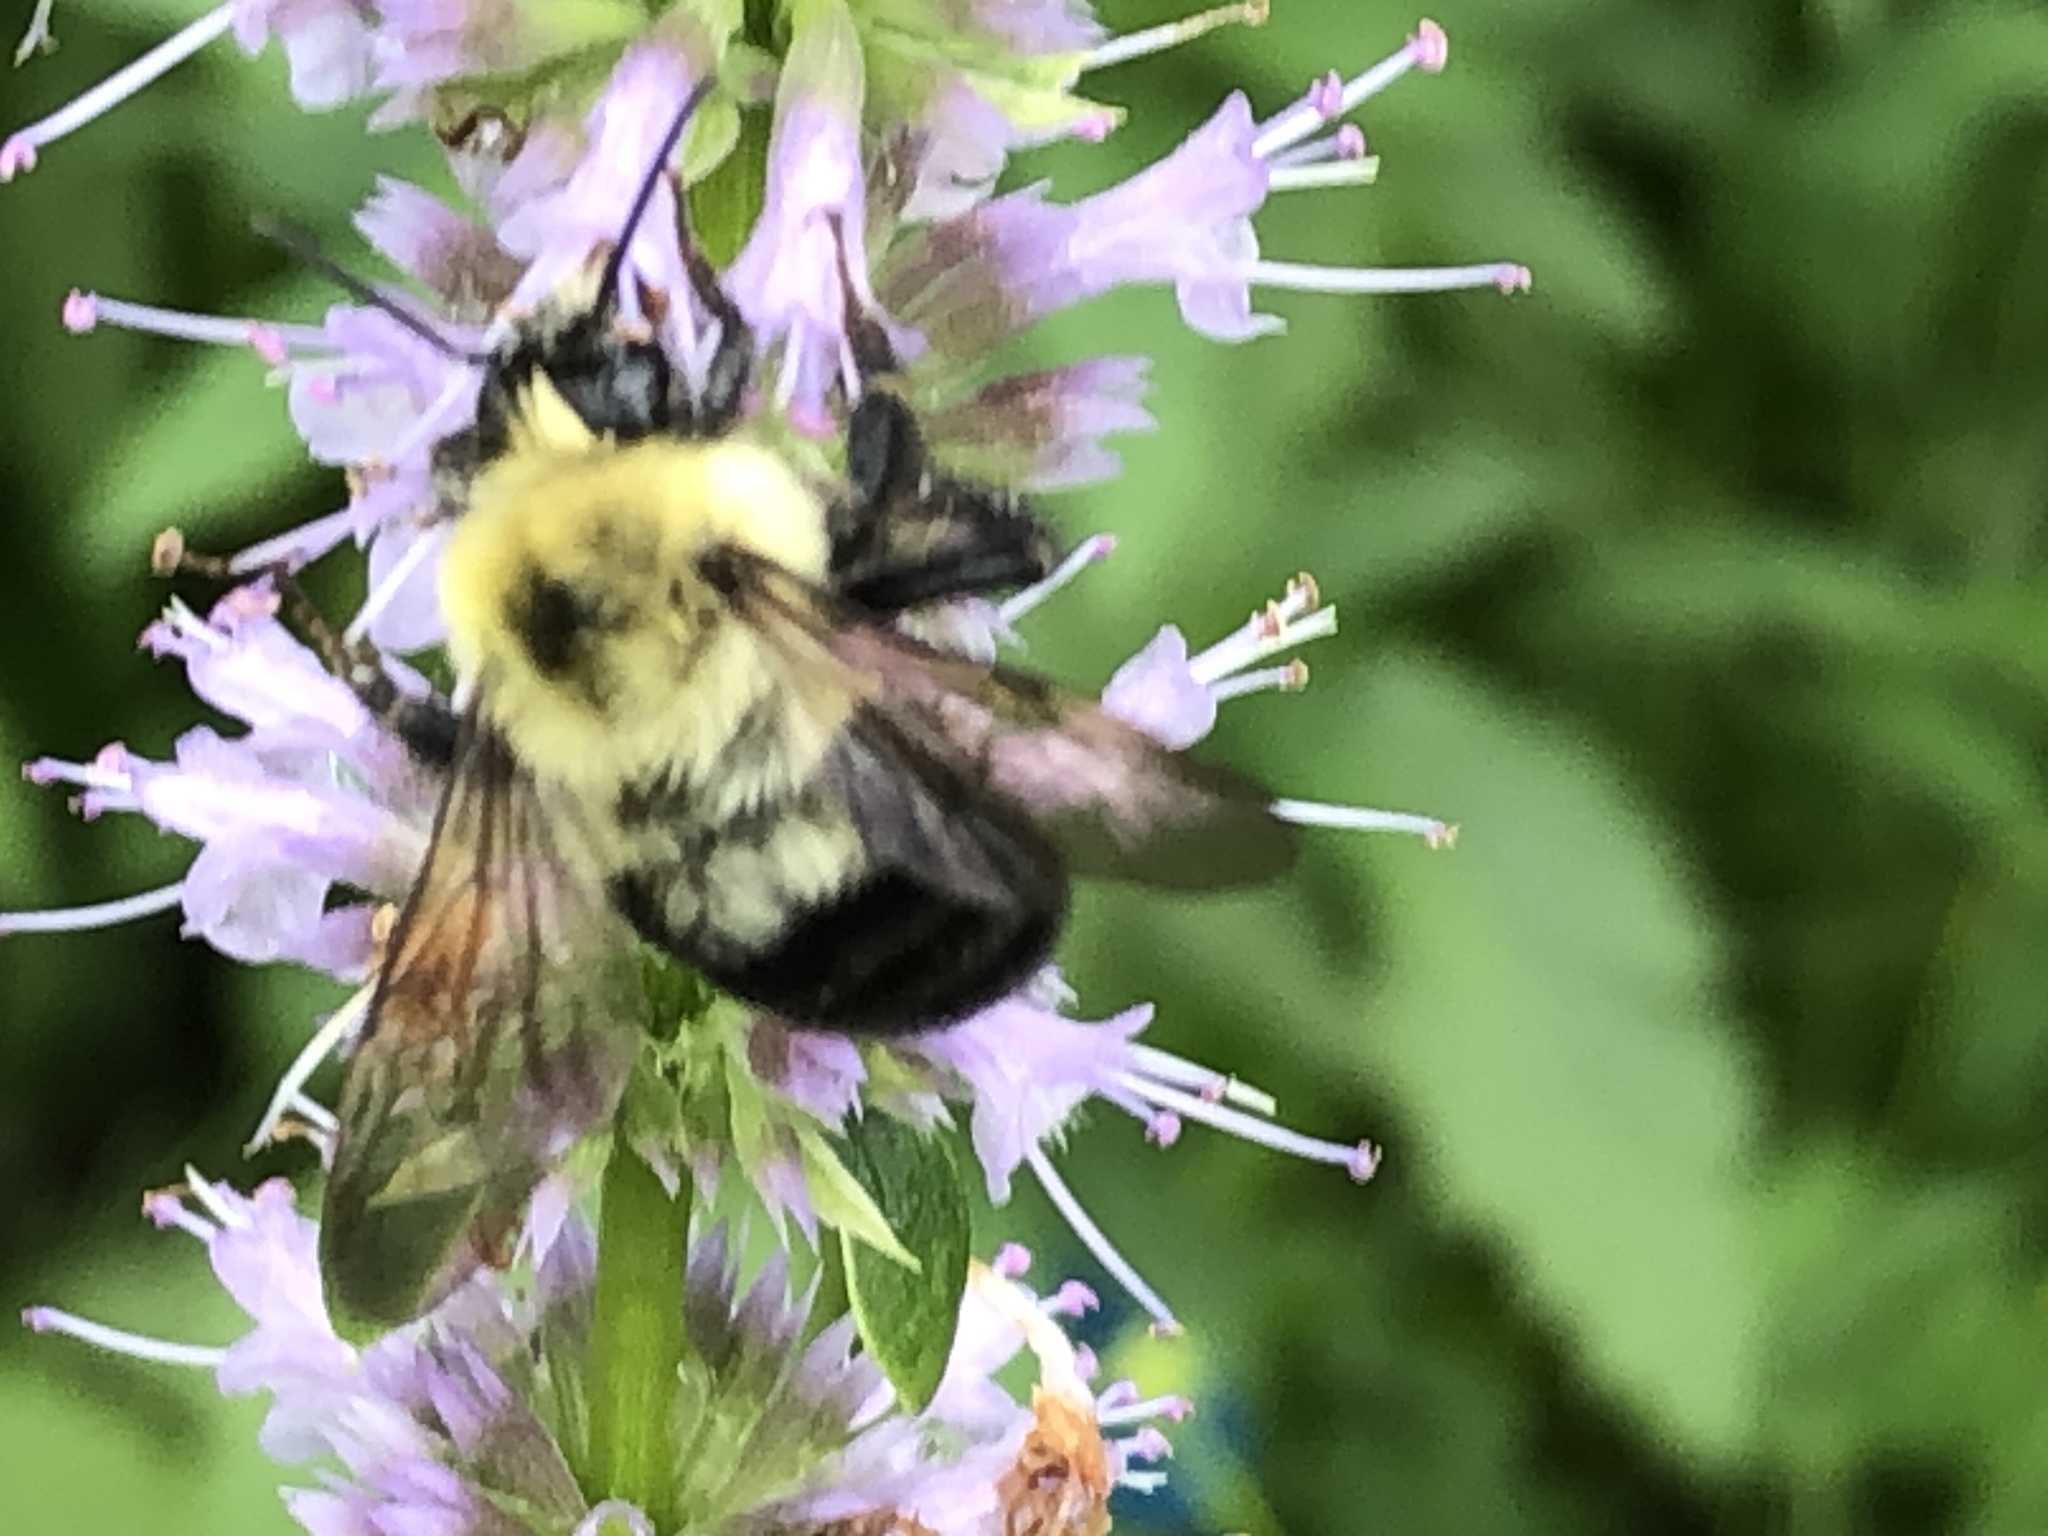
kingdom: Animalia
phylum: Arthropoda
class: Insecta
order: Hymenoptera
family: Apidae
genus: Bombus
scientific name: Bombus bimaculatus
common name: Two-spotted bumble bee
